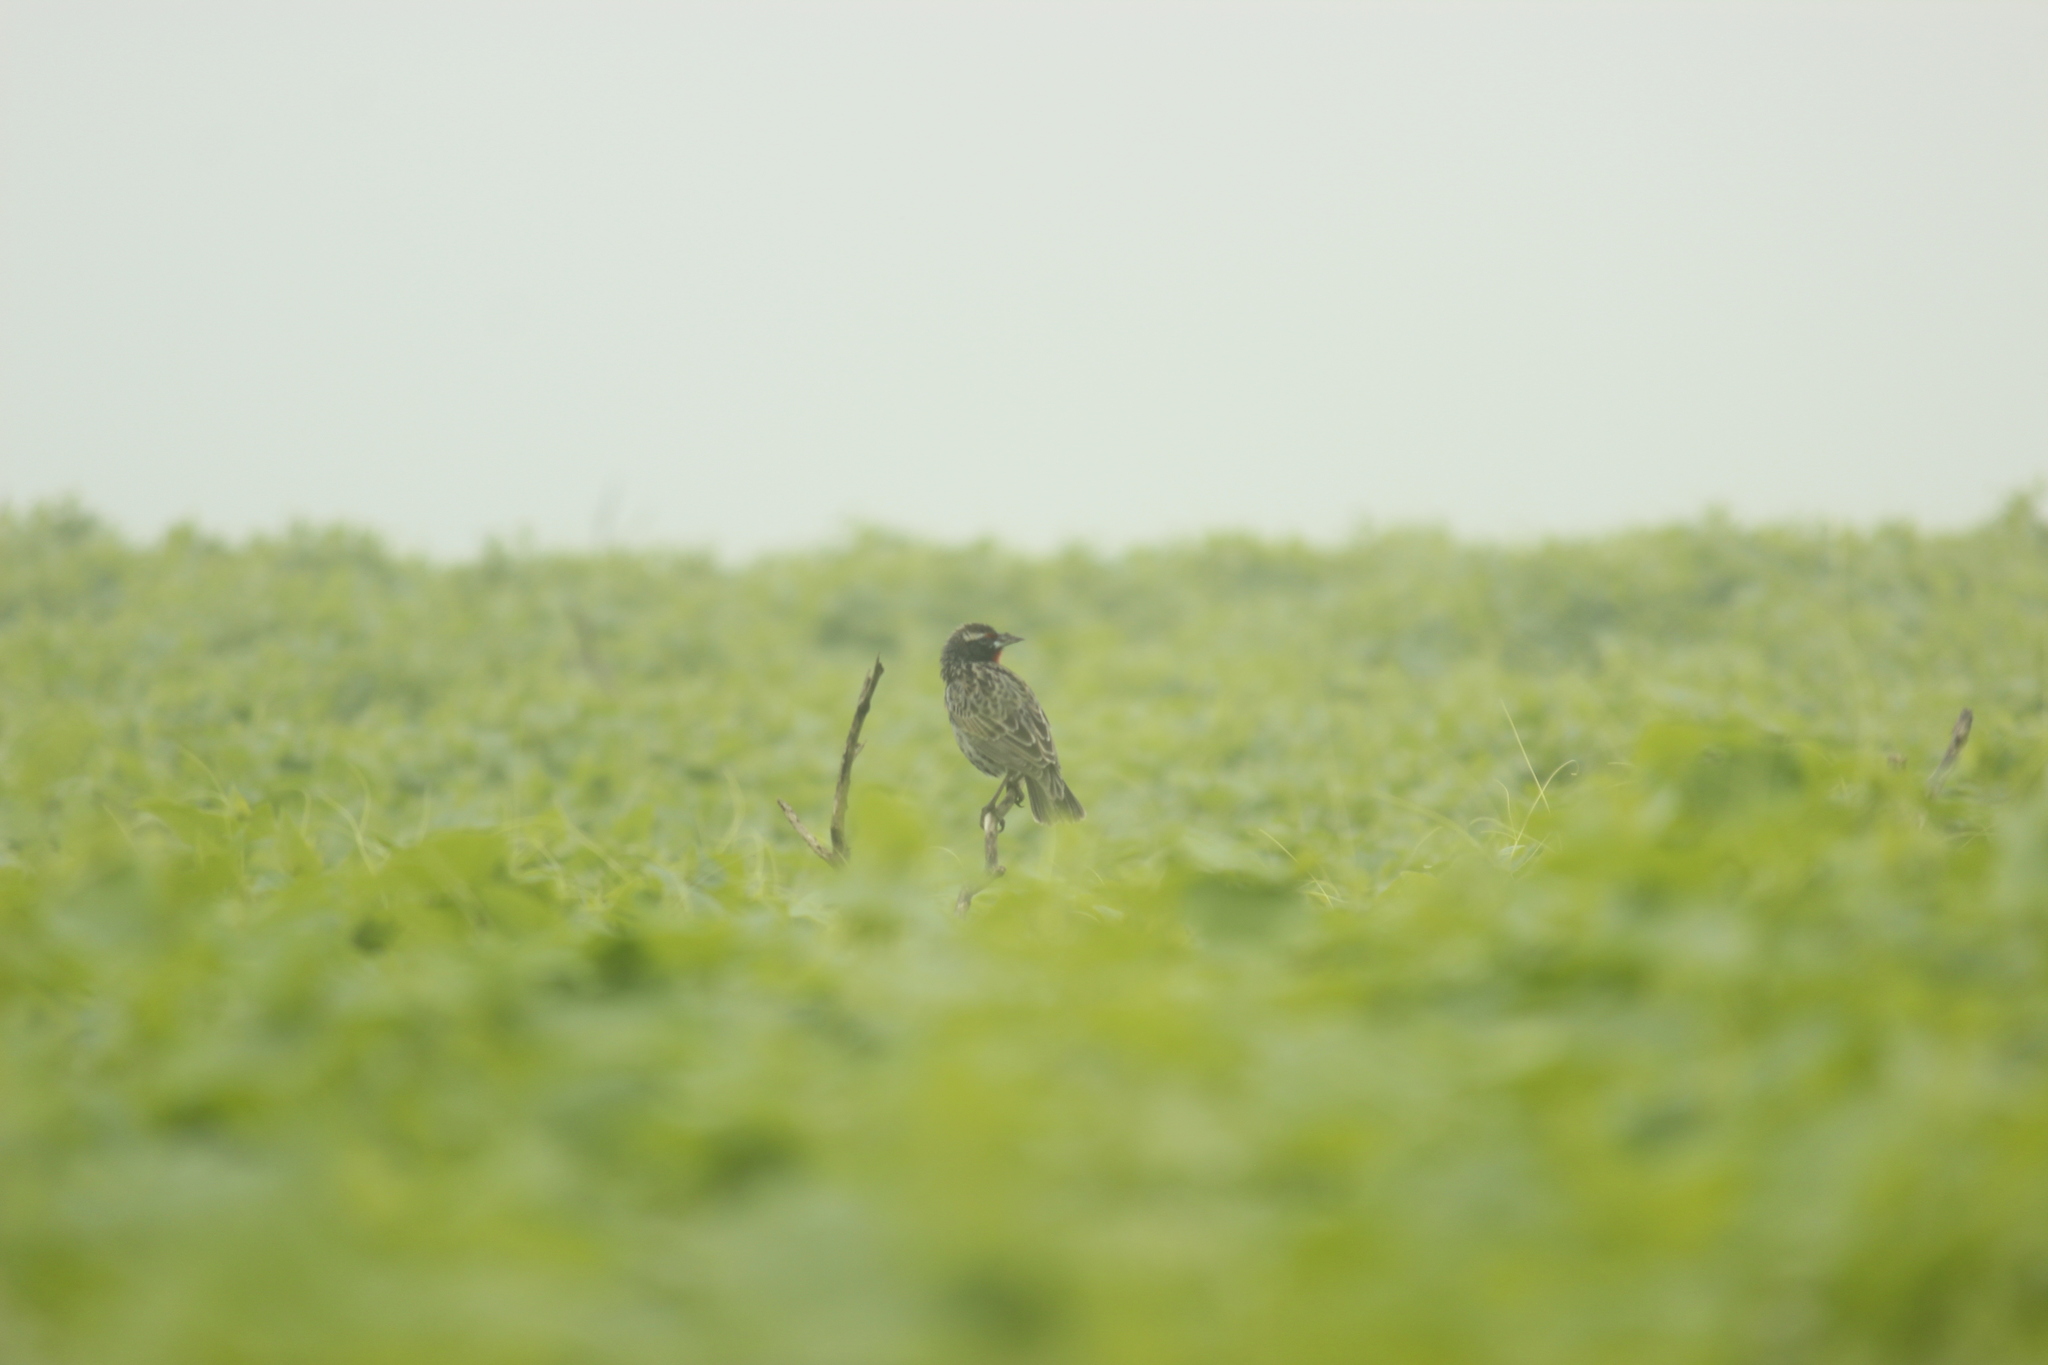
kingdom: Animalia
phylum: Chordata
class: Aves
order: Passeriformes
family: Icteridae
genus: Sturnella
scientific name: Sturnella bellicosa
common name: Peruvian meadowlark
